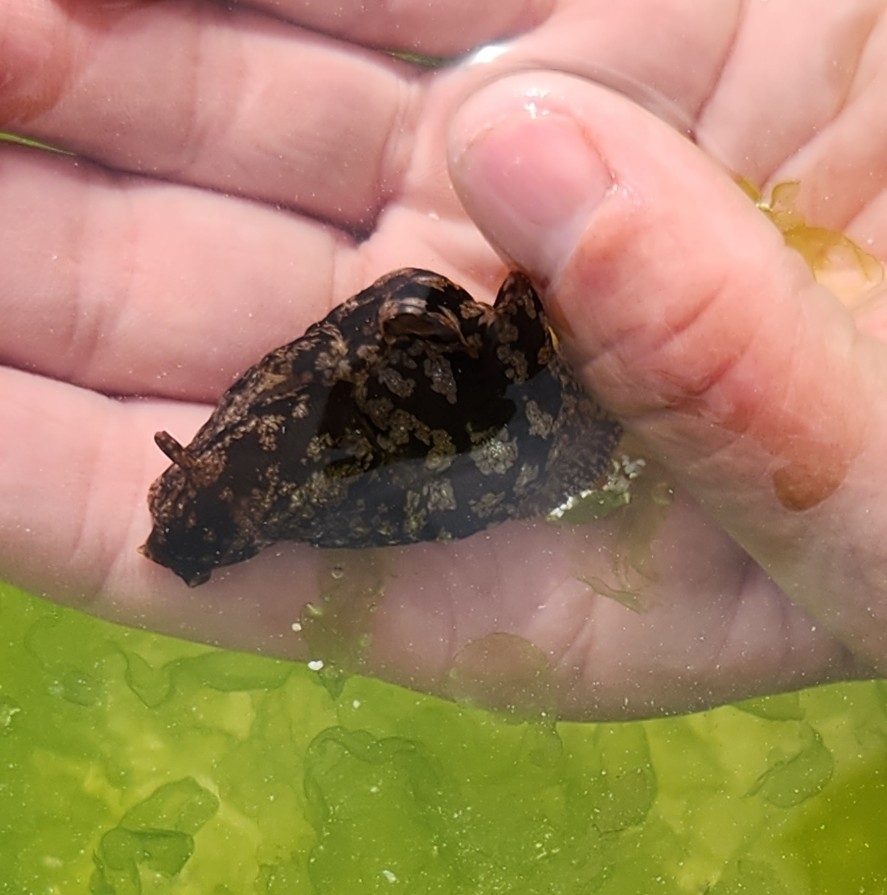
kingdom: Animalia
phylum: Mollusca
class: Gastropoda
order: Aplysiida
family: Aplysiidae
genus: Aplysia
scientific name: Aplysia californica
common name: California seahare
